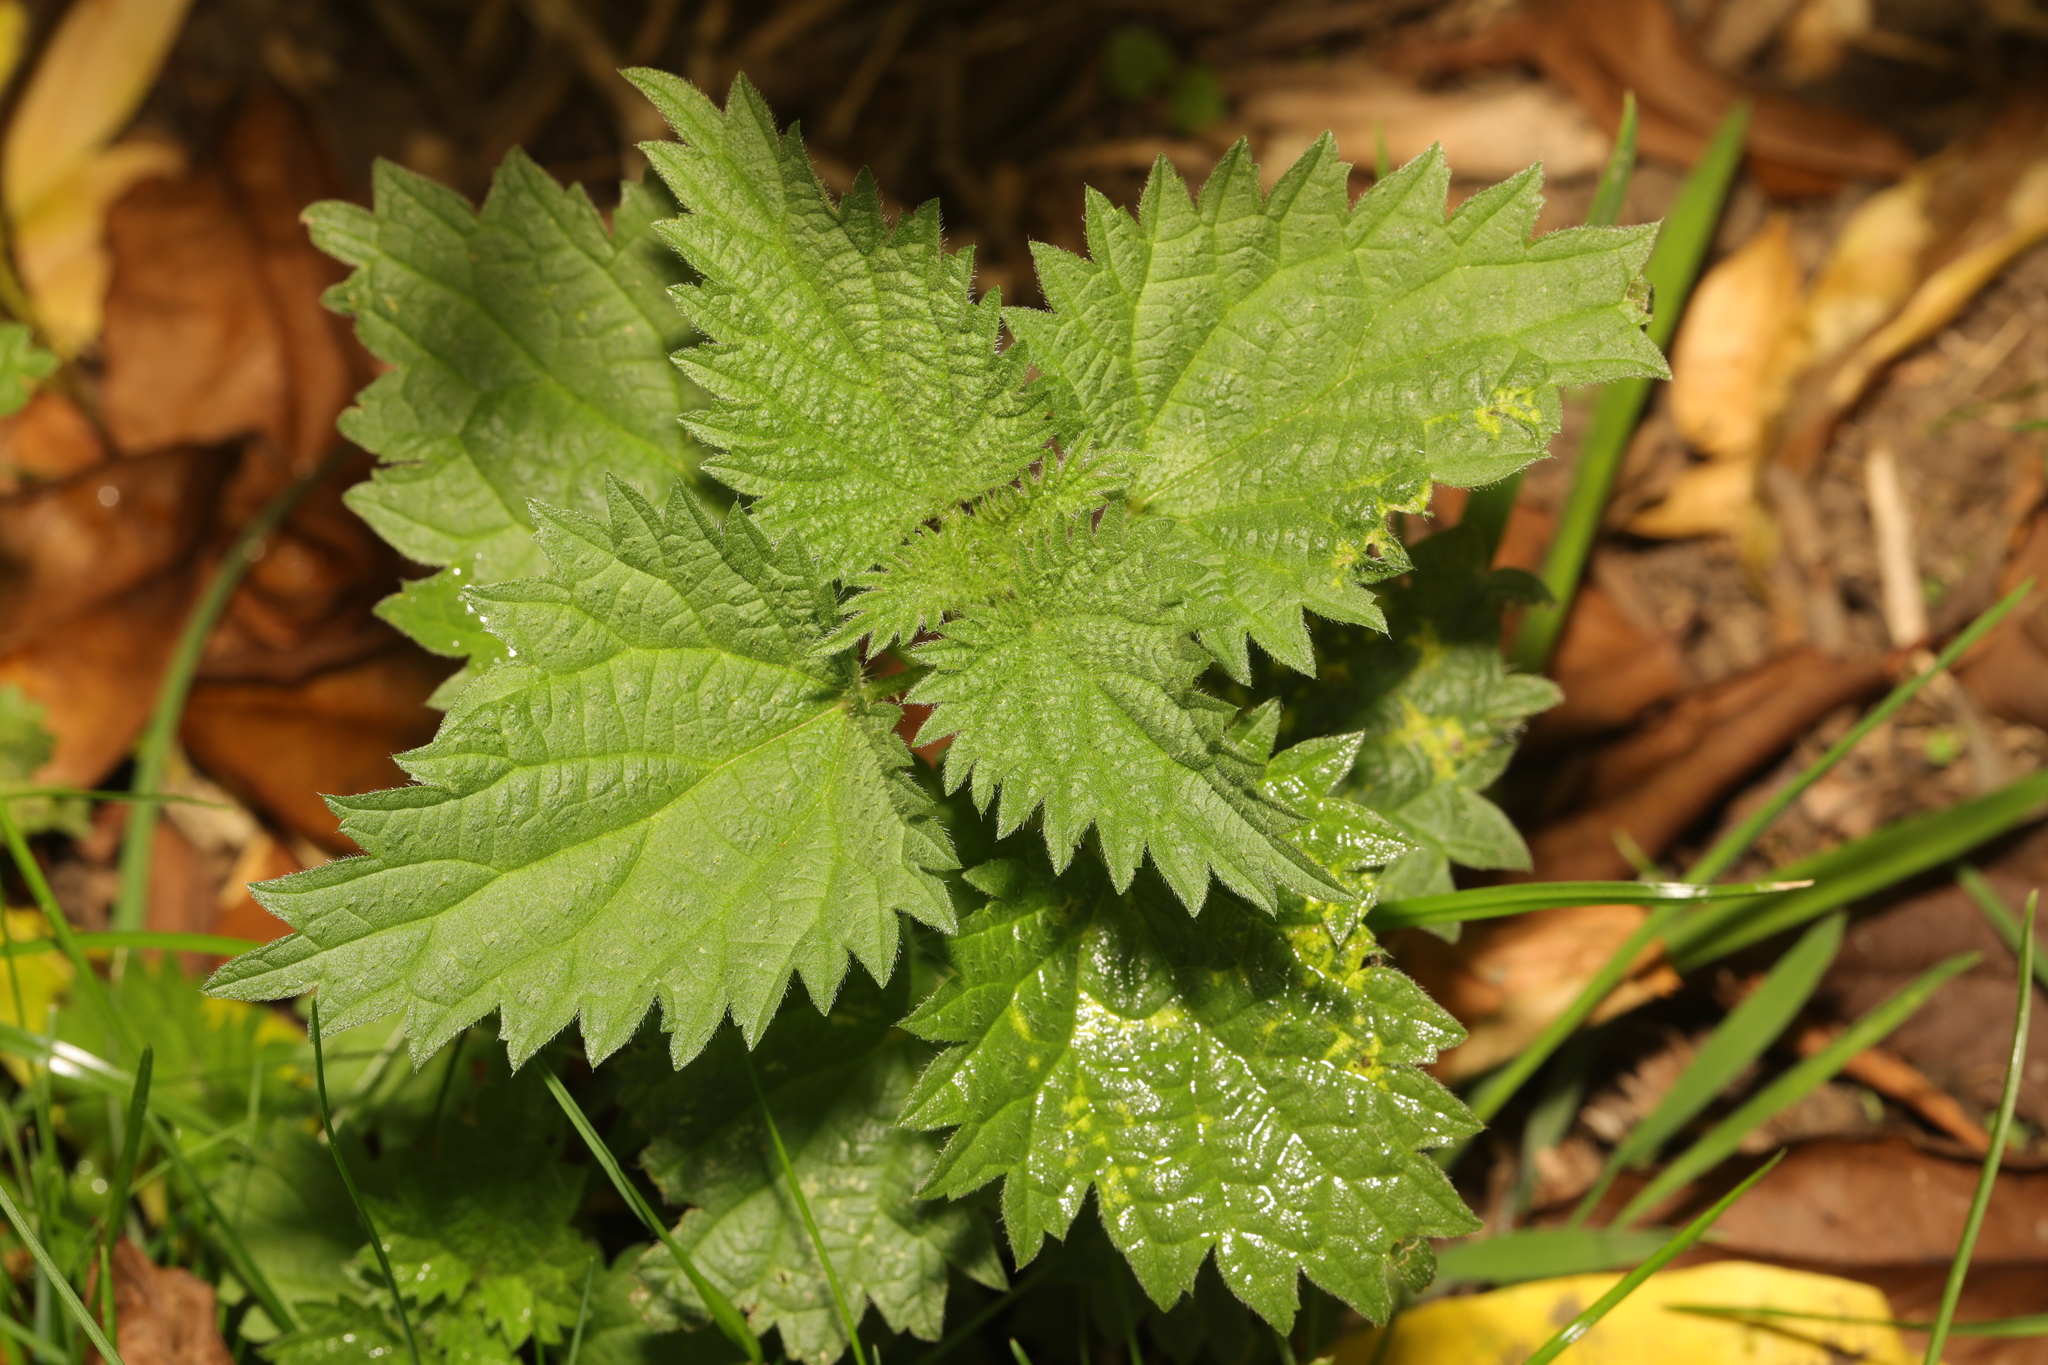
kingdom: Plantae
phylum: Tracheophyta
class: Magnoliopsida
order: Rosales
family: Urticaceae
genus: Urtica
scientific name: Urtica dioica
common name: Common nettle
